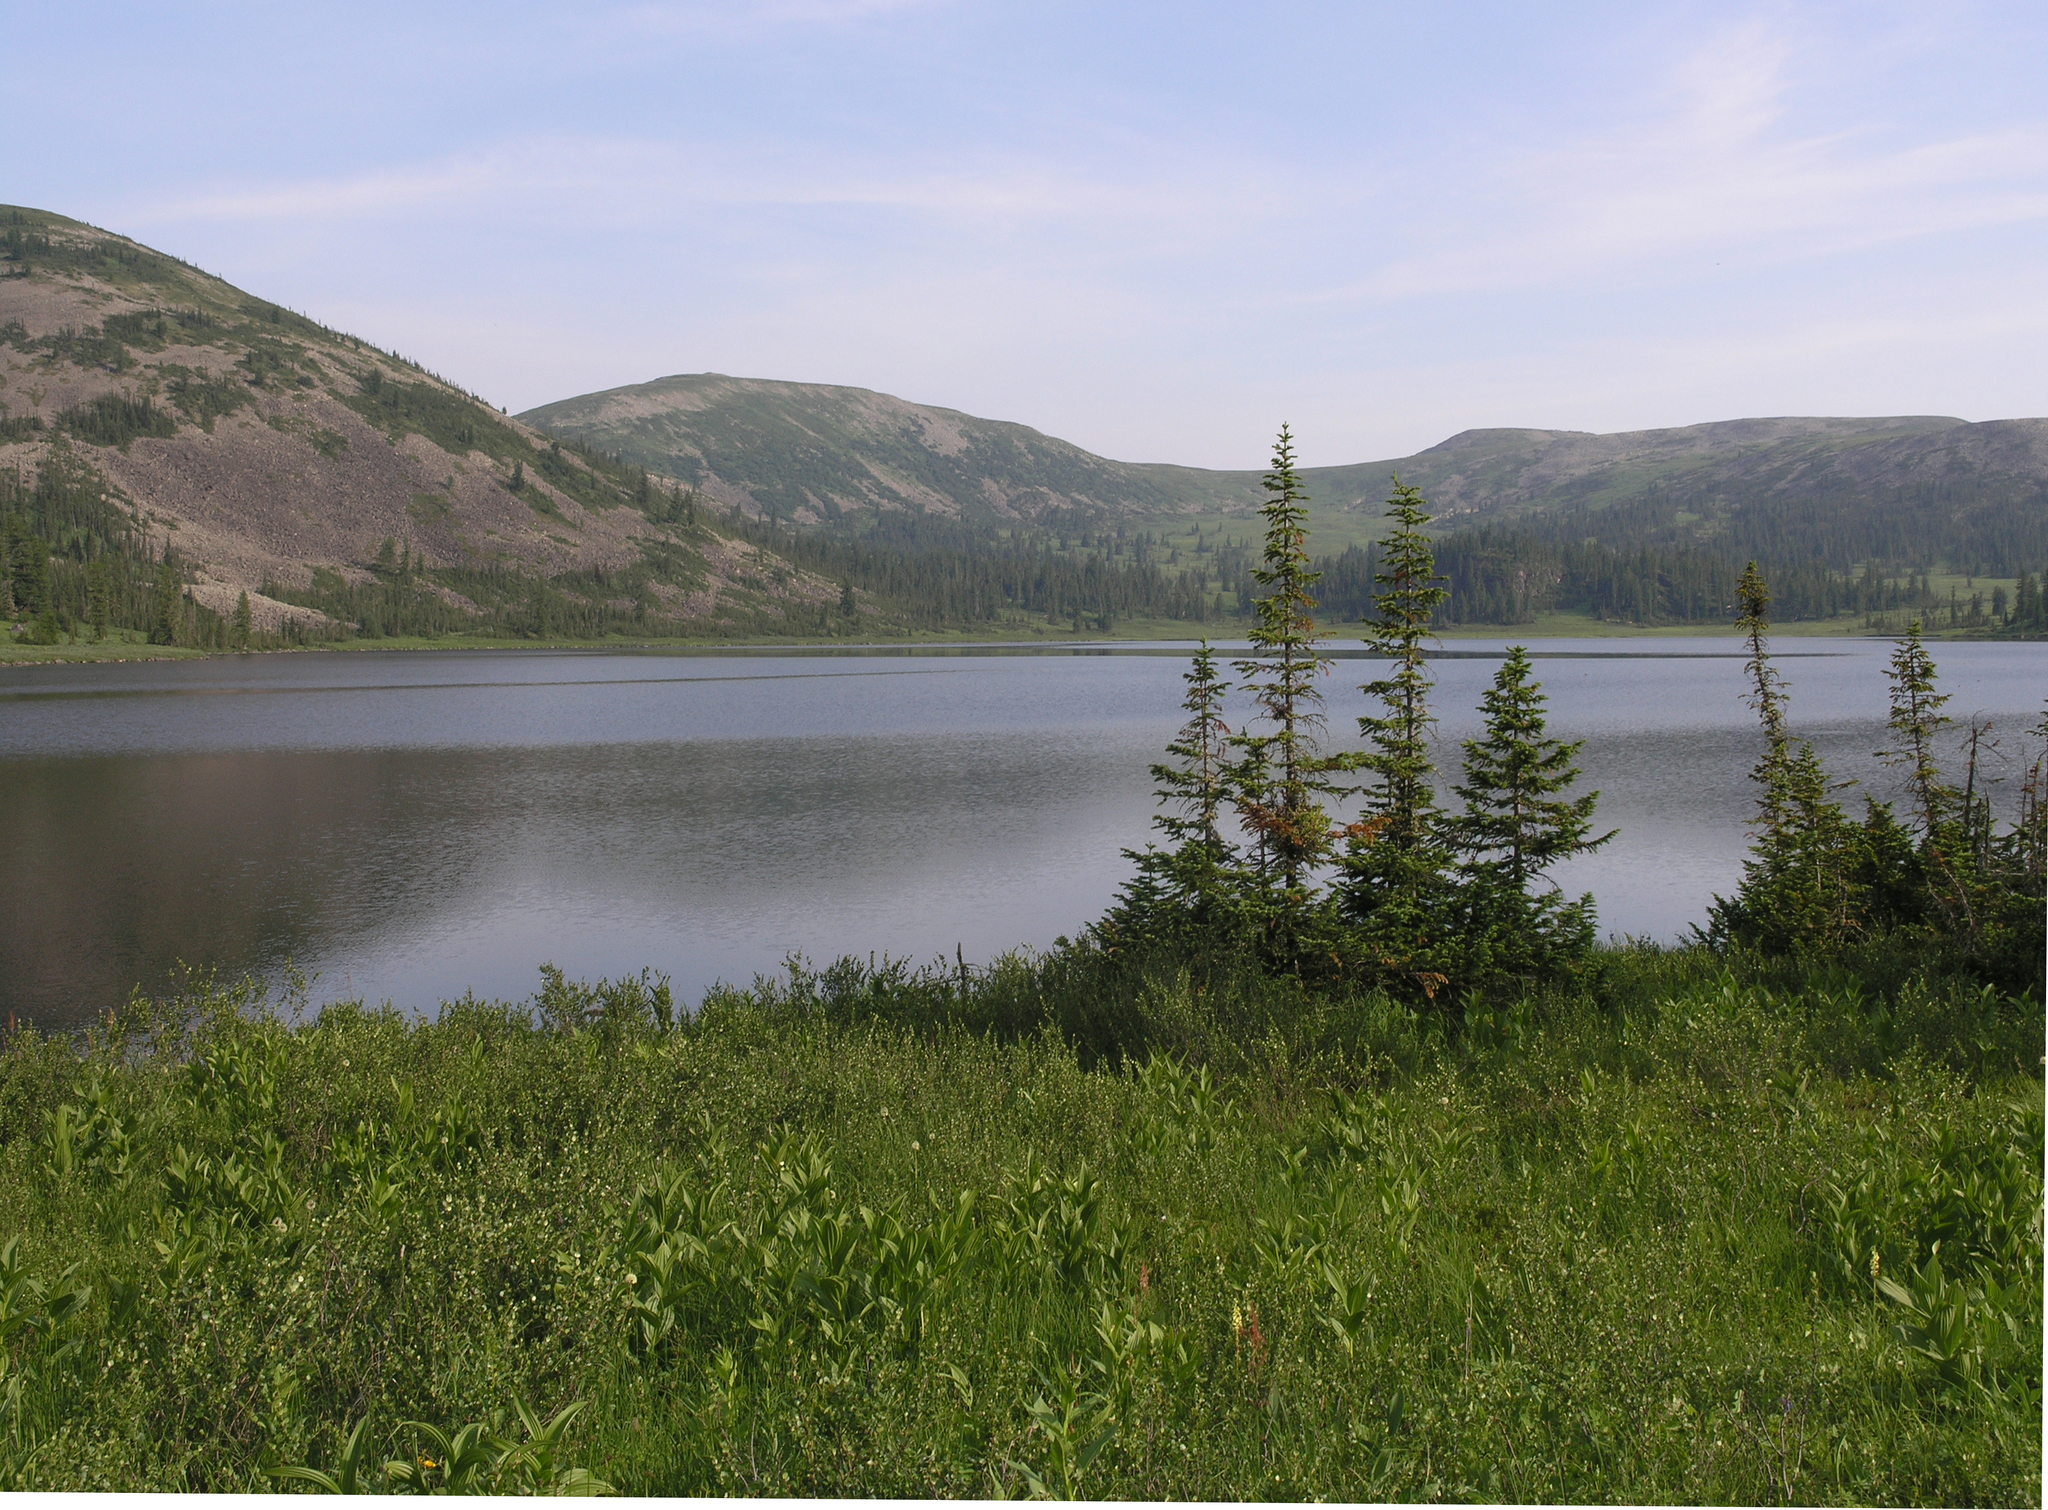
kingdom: Plantae
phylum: Tracheophyta
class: Pinopsida
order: Pinales
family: Pinaceae
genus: Abies
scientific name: Abies sibirica
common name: Siberian fir
